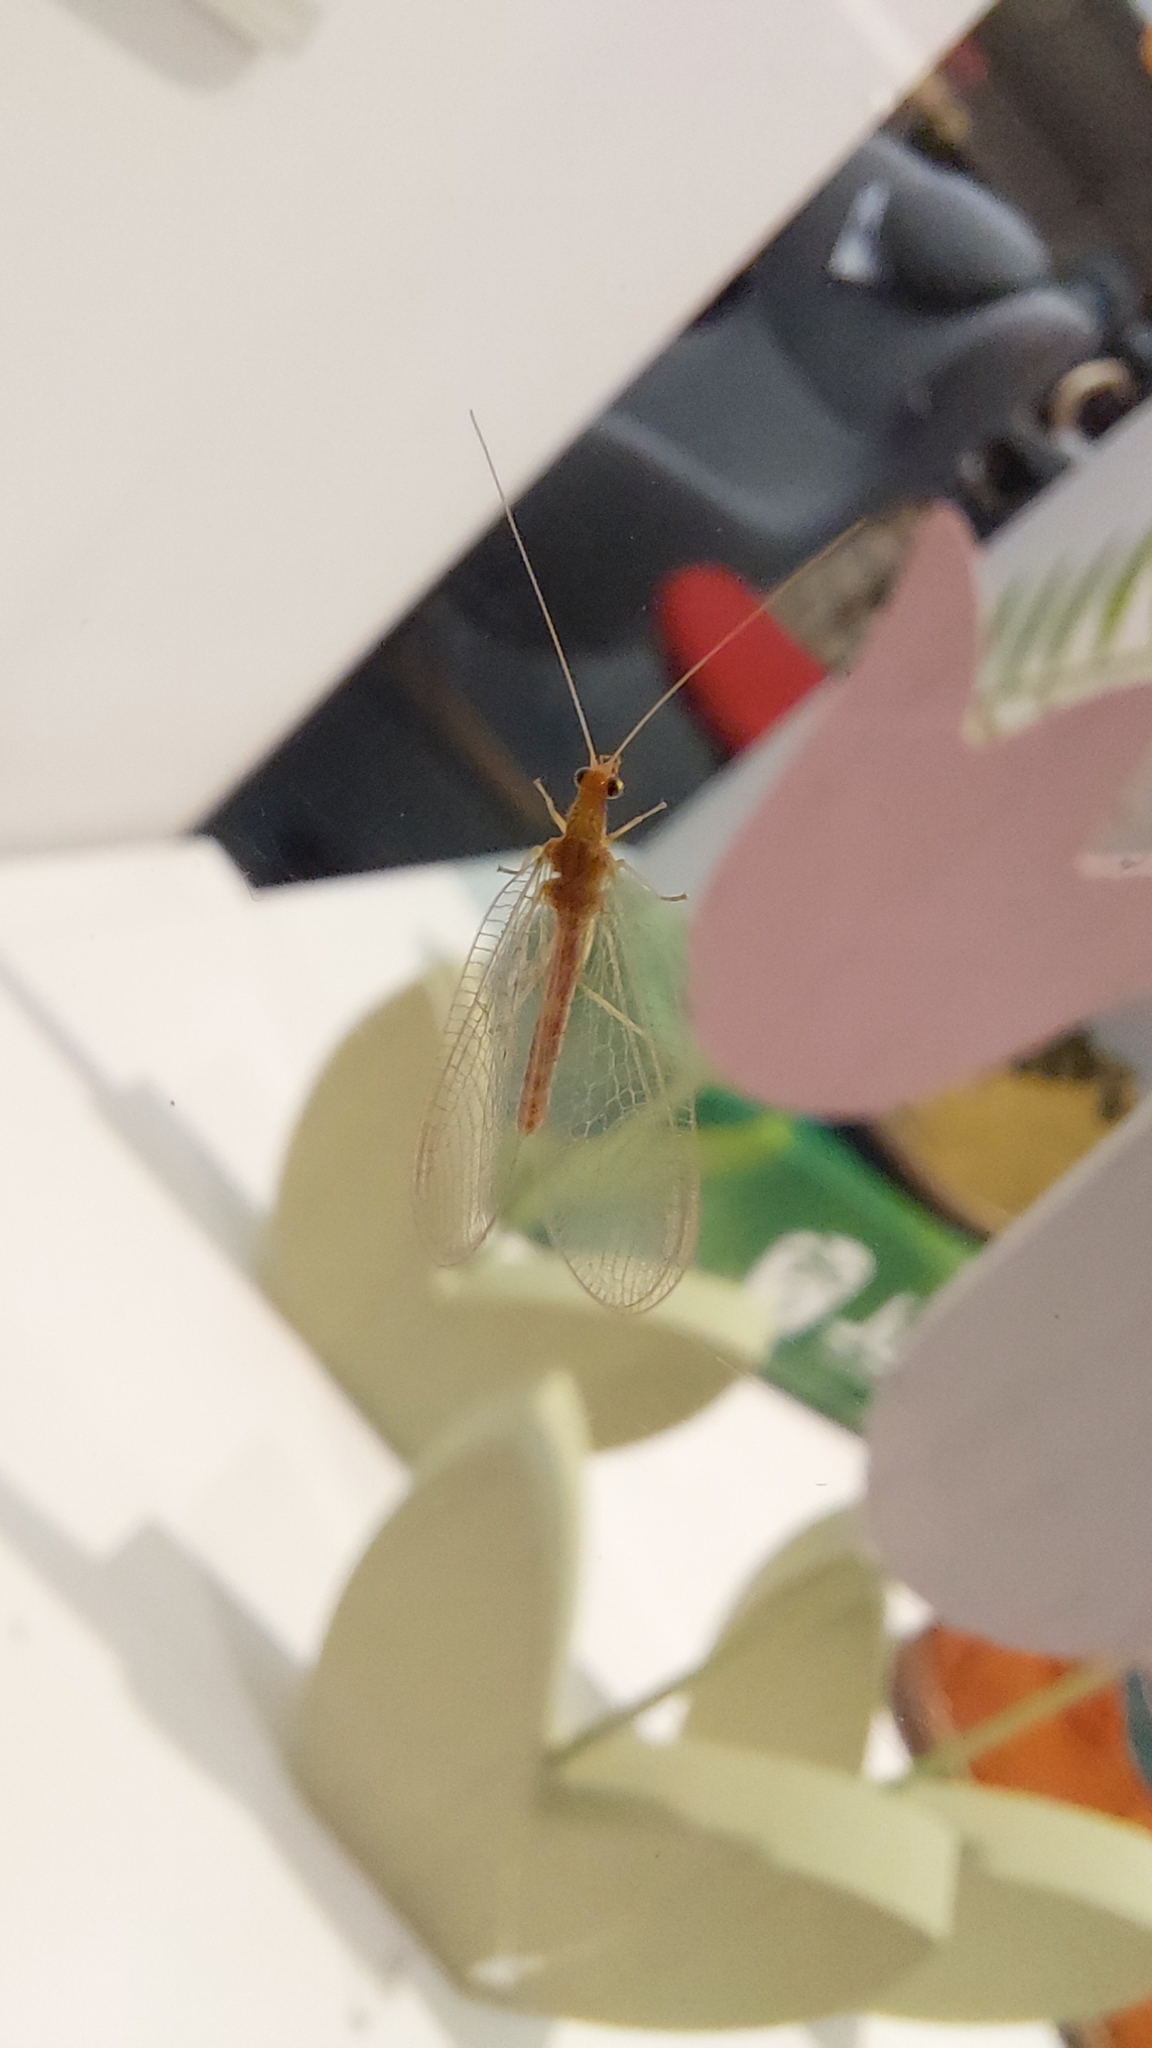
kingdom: Animalia
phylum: Arthropoda
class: Insecta
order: Neuroptera
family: Chrysopidae
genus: Chrysoperla
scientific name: Chrysoperla
